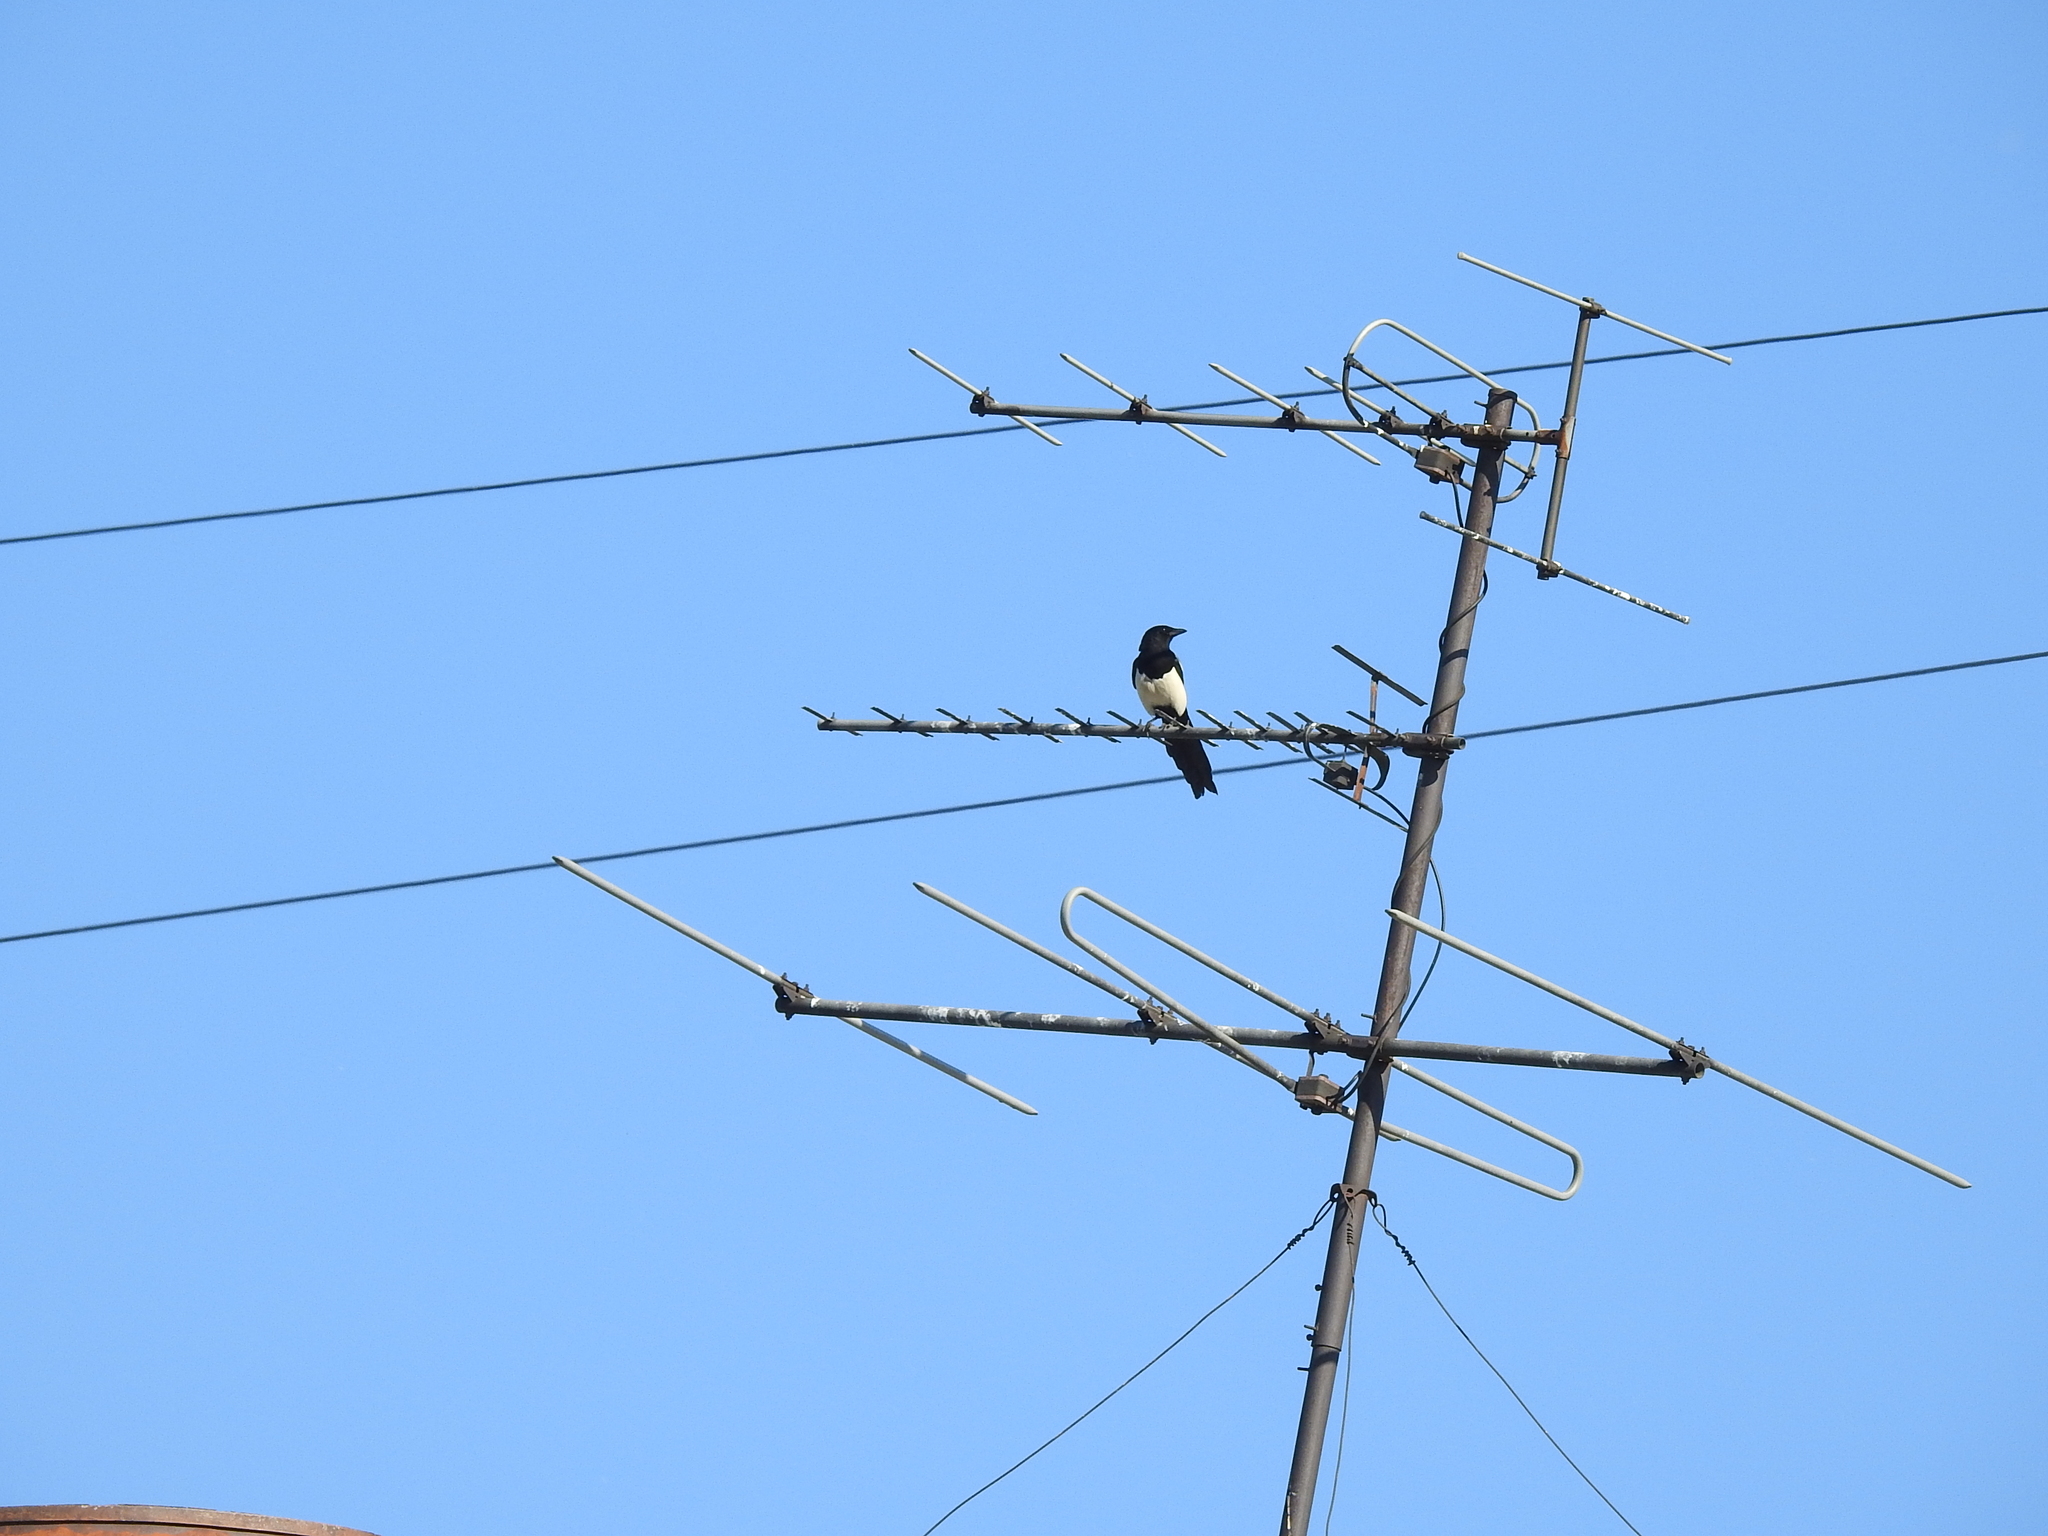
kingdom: Animalia
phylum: Chordata
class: Aves
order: Passeriformes
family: Corvidae
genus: Pica
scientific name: Pica pica
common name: Eurasian magpie
